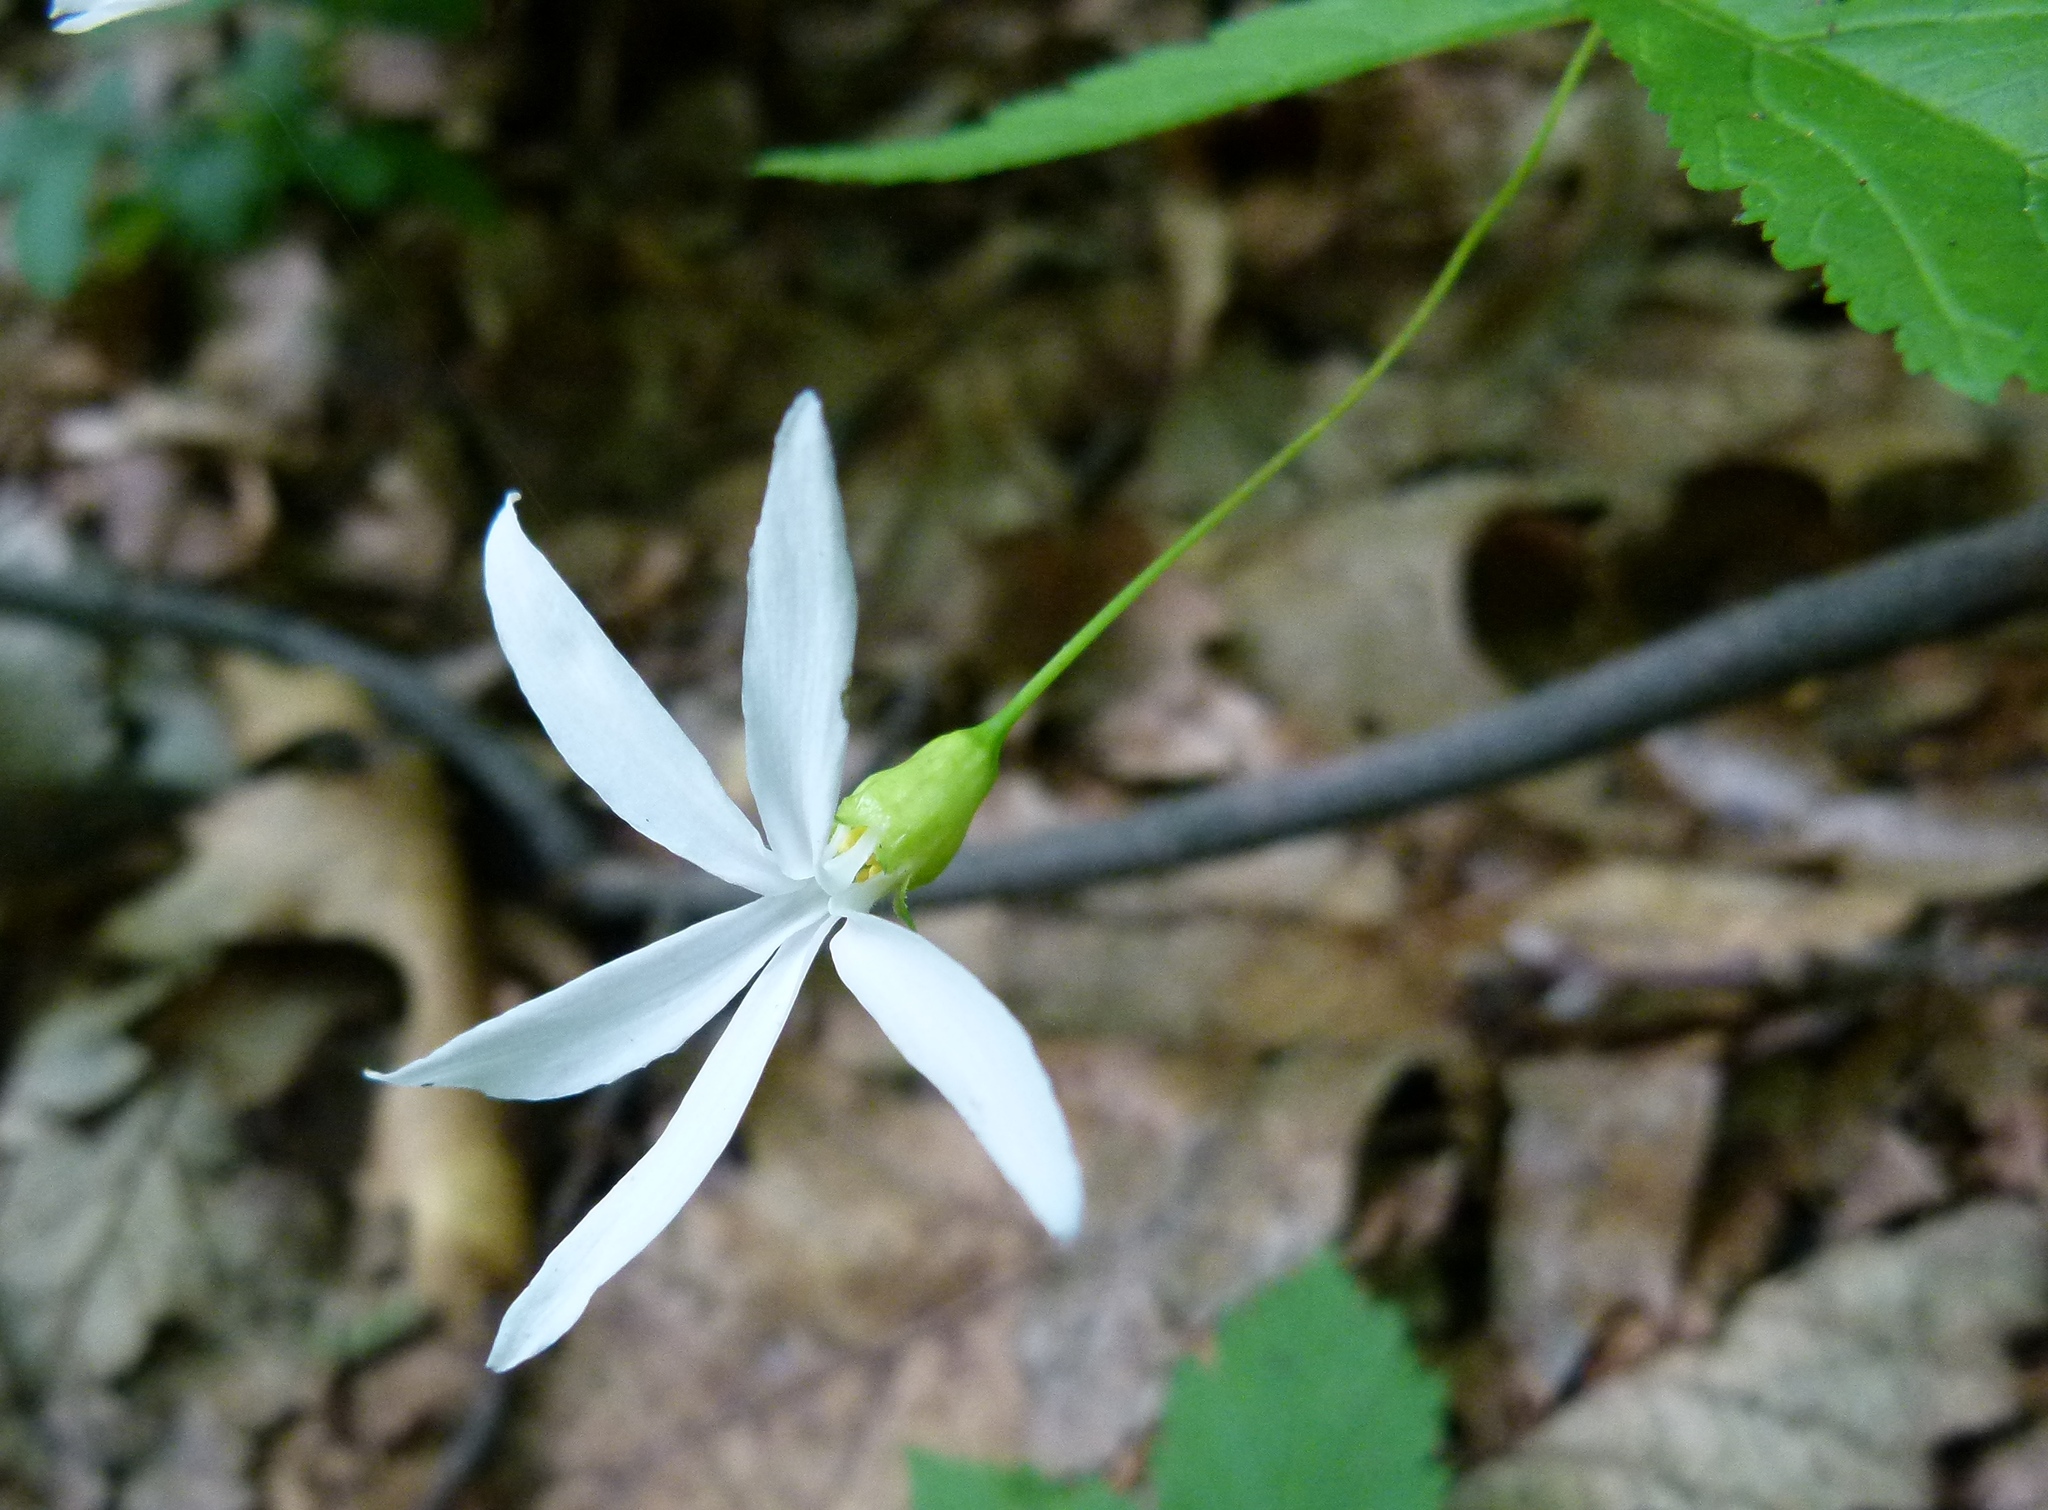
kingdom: Plantae
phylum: Tracheophyta
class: Magnoliopsida
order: Rosales
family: Rosaceae
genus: Gillenia
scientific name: Gillenia trifoliata
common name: Bowman's-root
